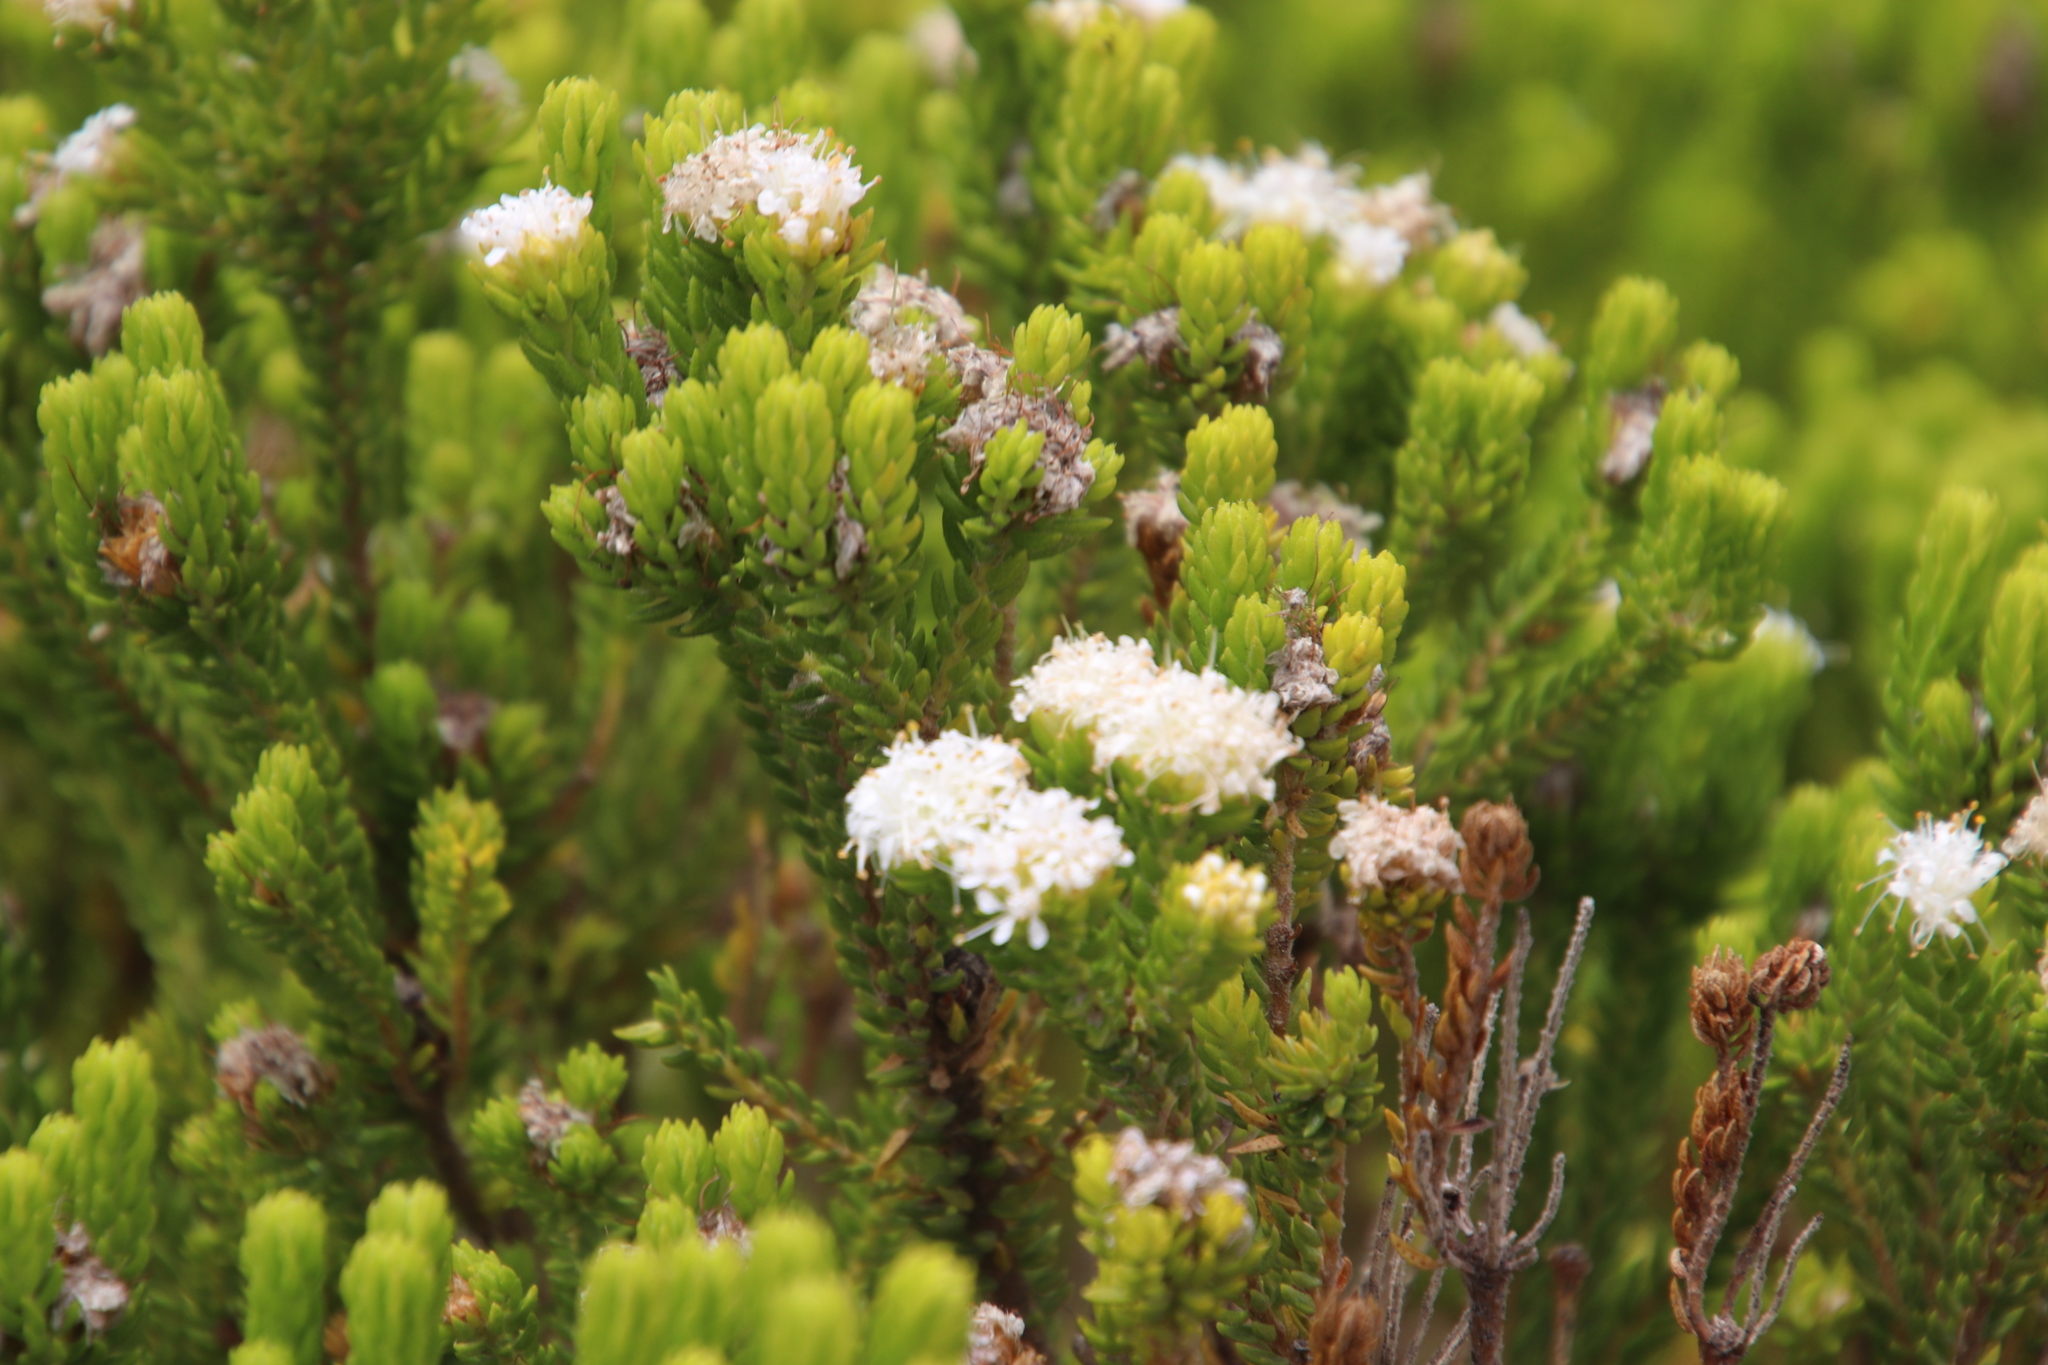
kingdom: Plantae
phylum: Tracheophyta
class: Magnoliopsida
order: Sapindales
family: Rutaceae
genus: Agathosma
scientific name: Agathosma collina
